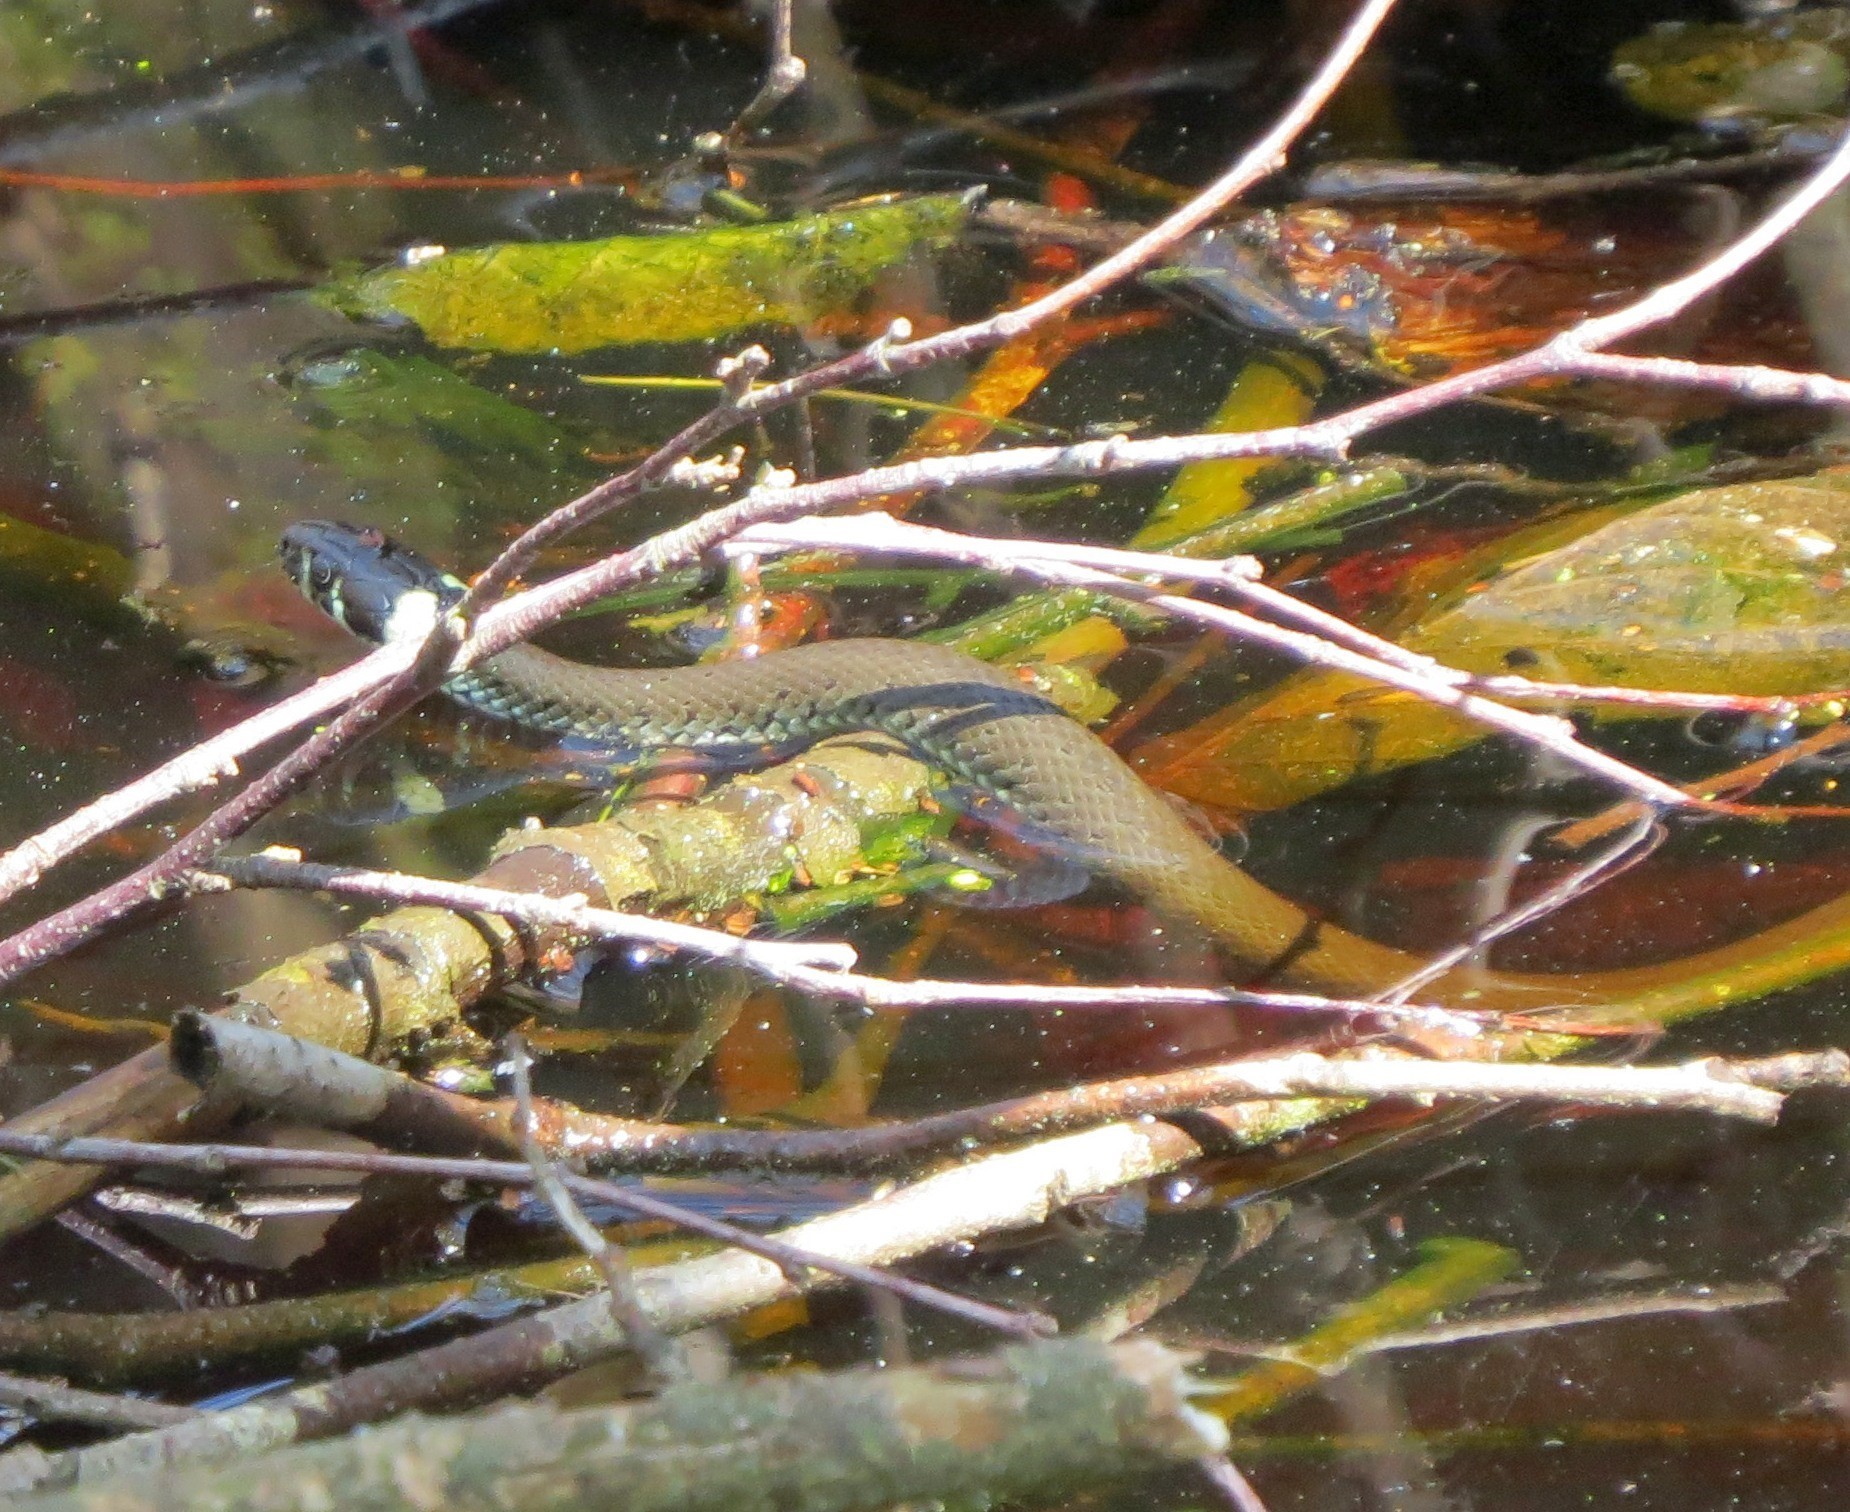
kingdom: Animalia
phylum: Chordata
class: Squamata
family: Colubridae
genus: Natrix
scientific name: Natrix natrix
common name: Grass snake
